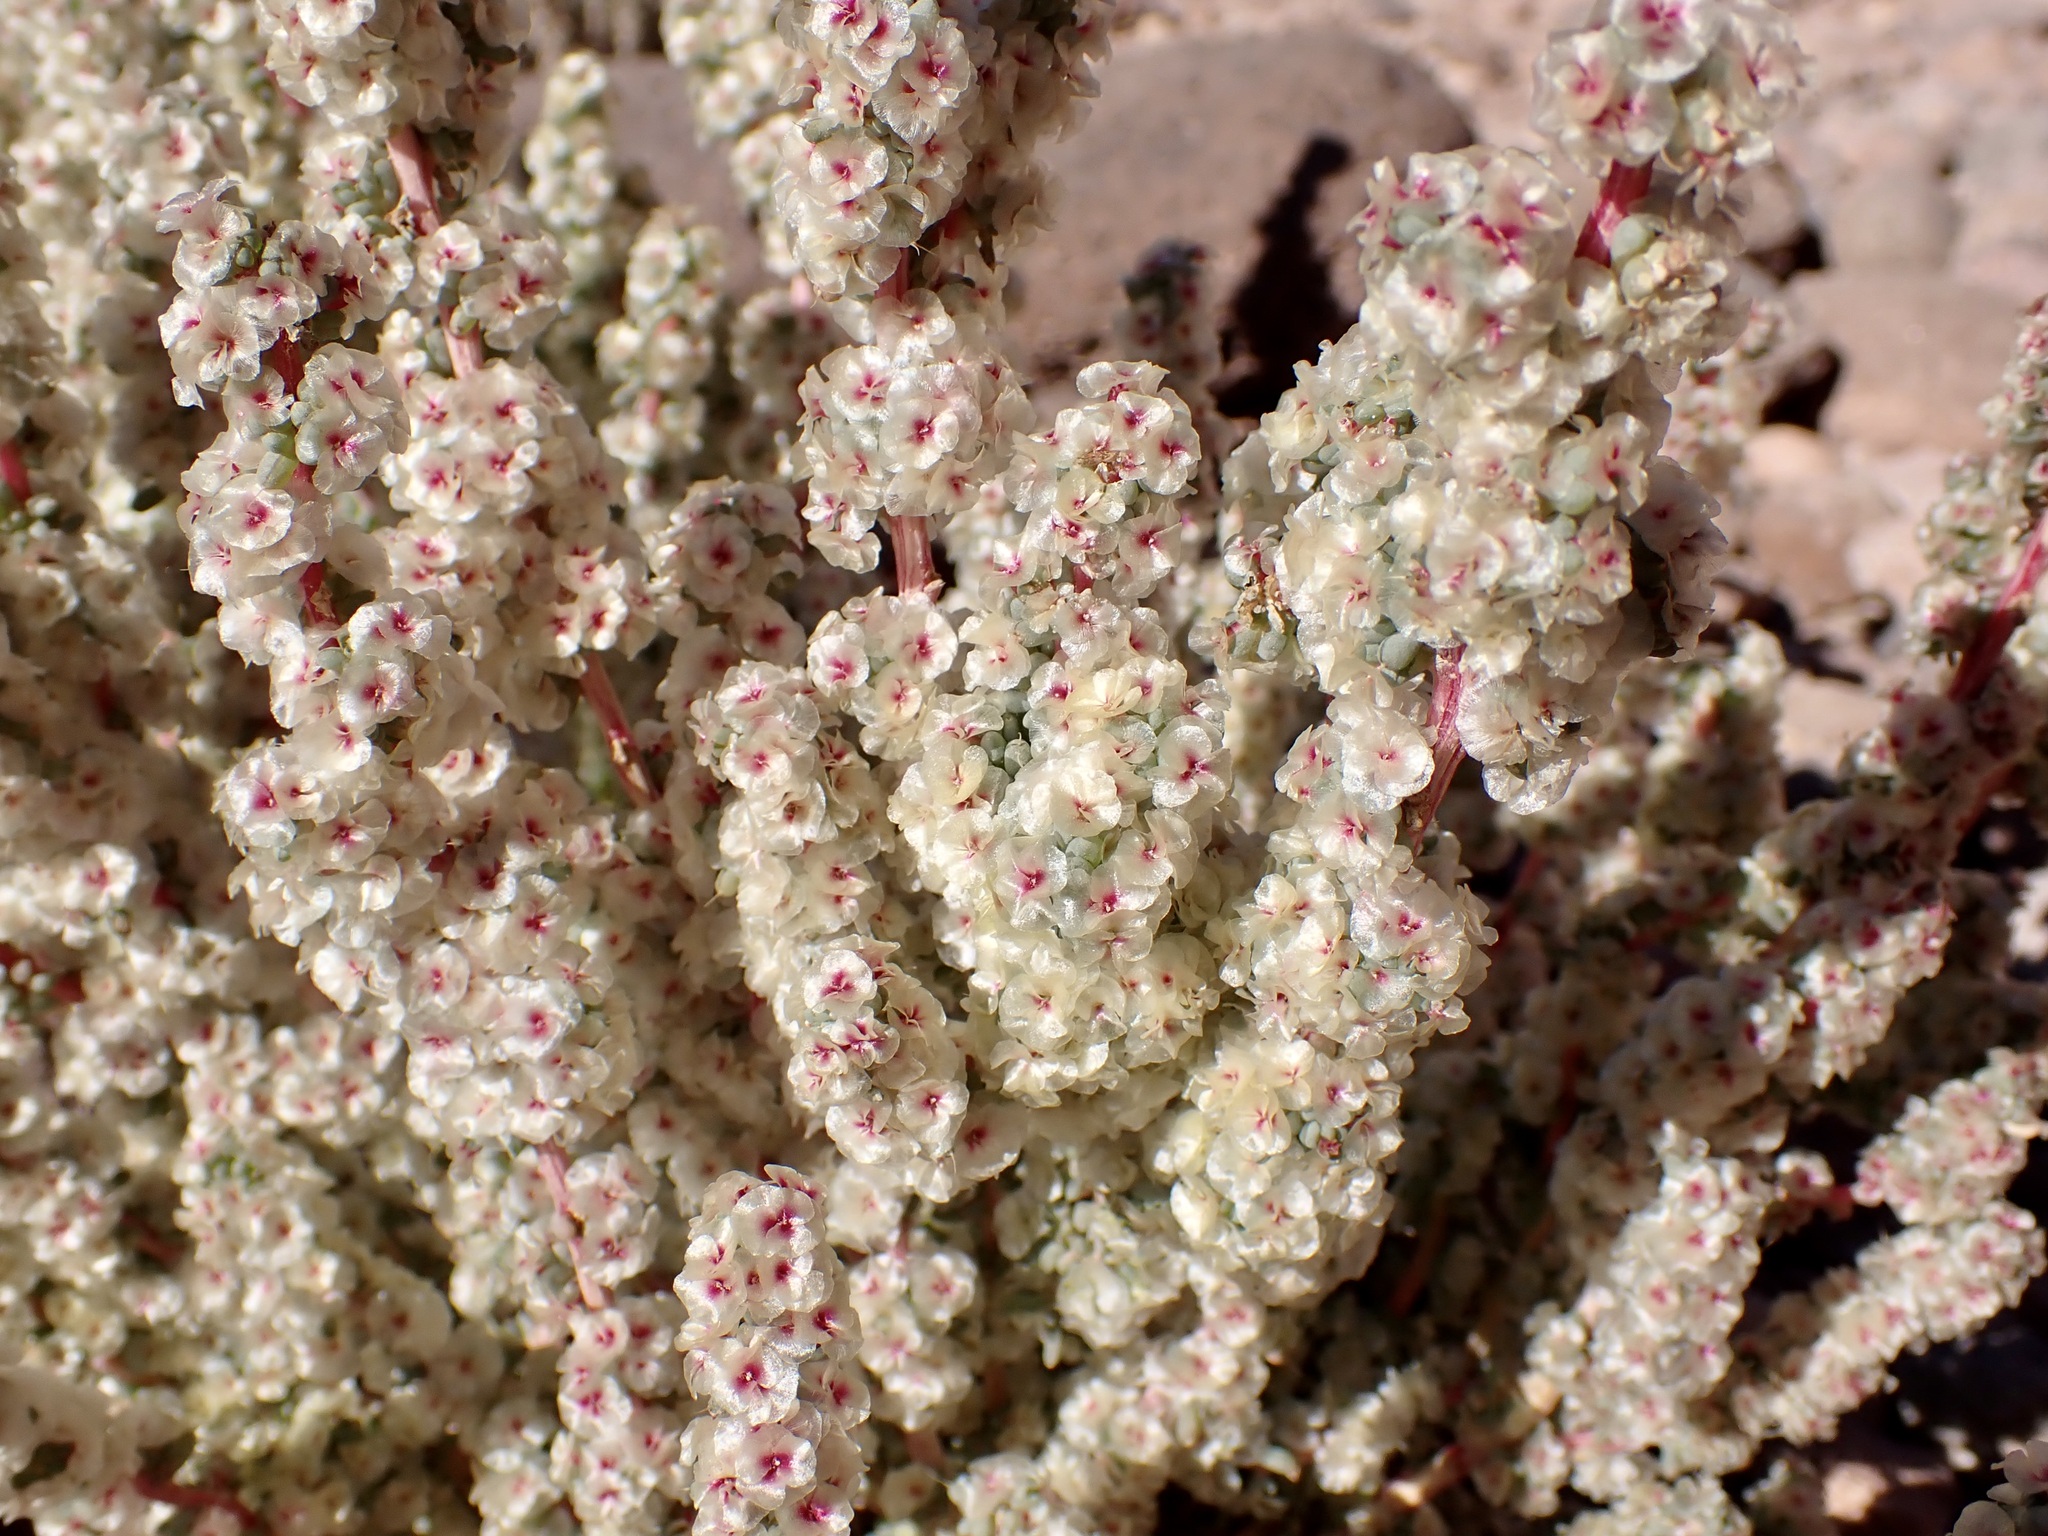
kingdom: Plantae
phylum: Tracheophyta
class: Magnoliopsida
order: Caryophyllales
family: Amaranthaceae
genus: Halogeton
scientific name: Halogeton glomeratus
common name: Saltlover
